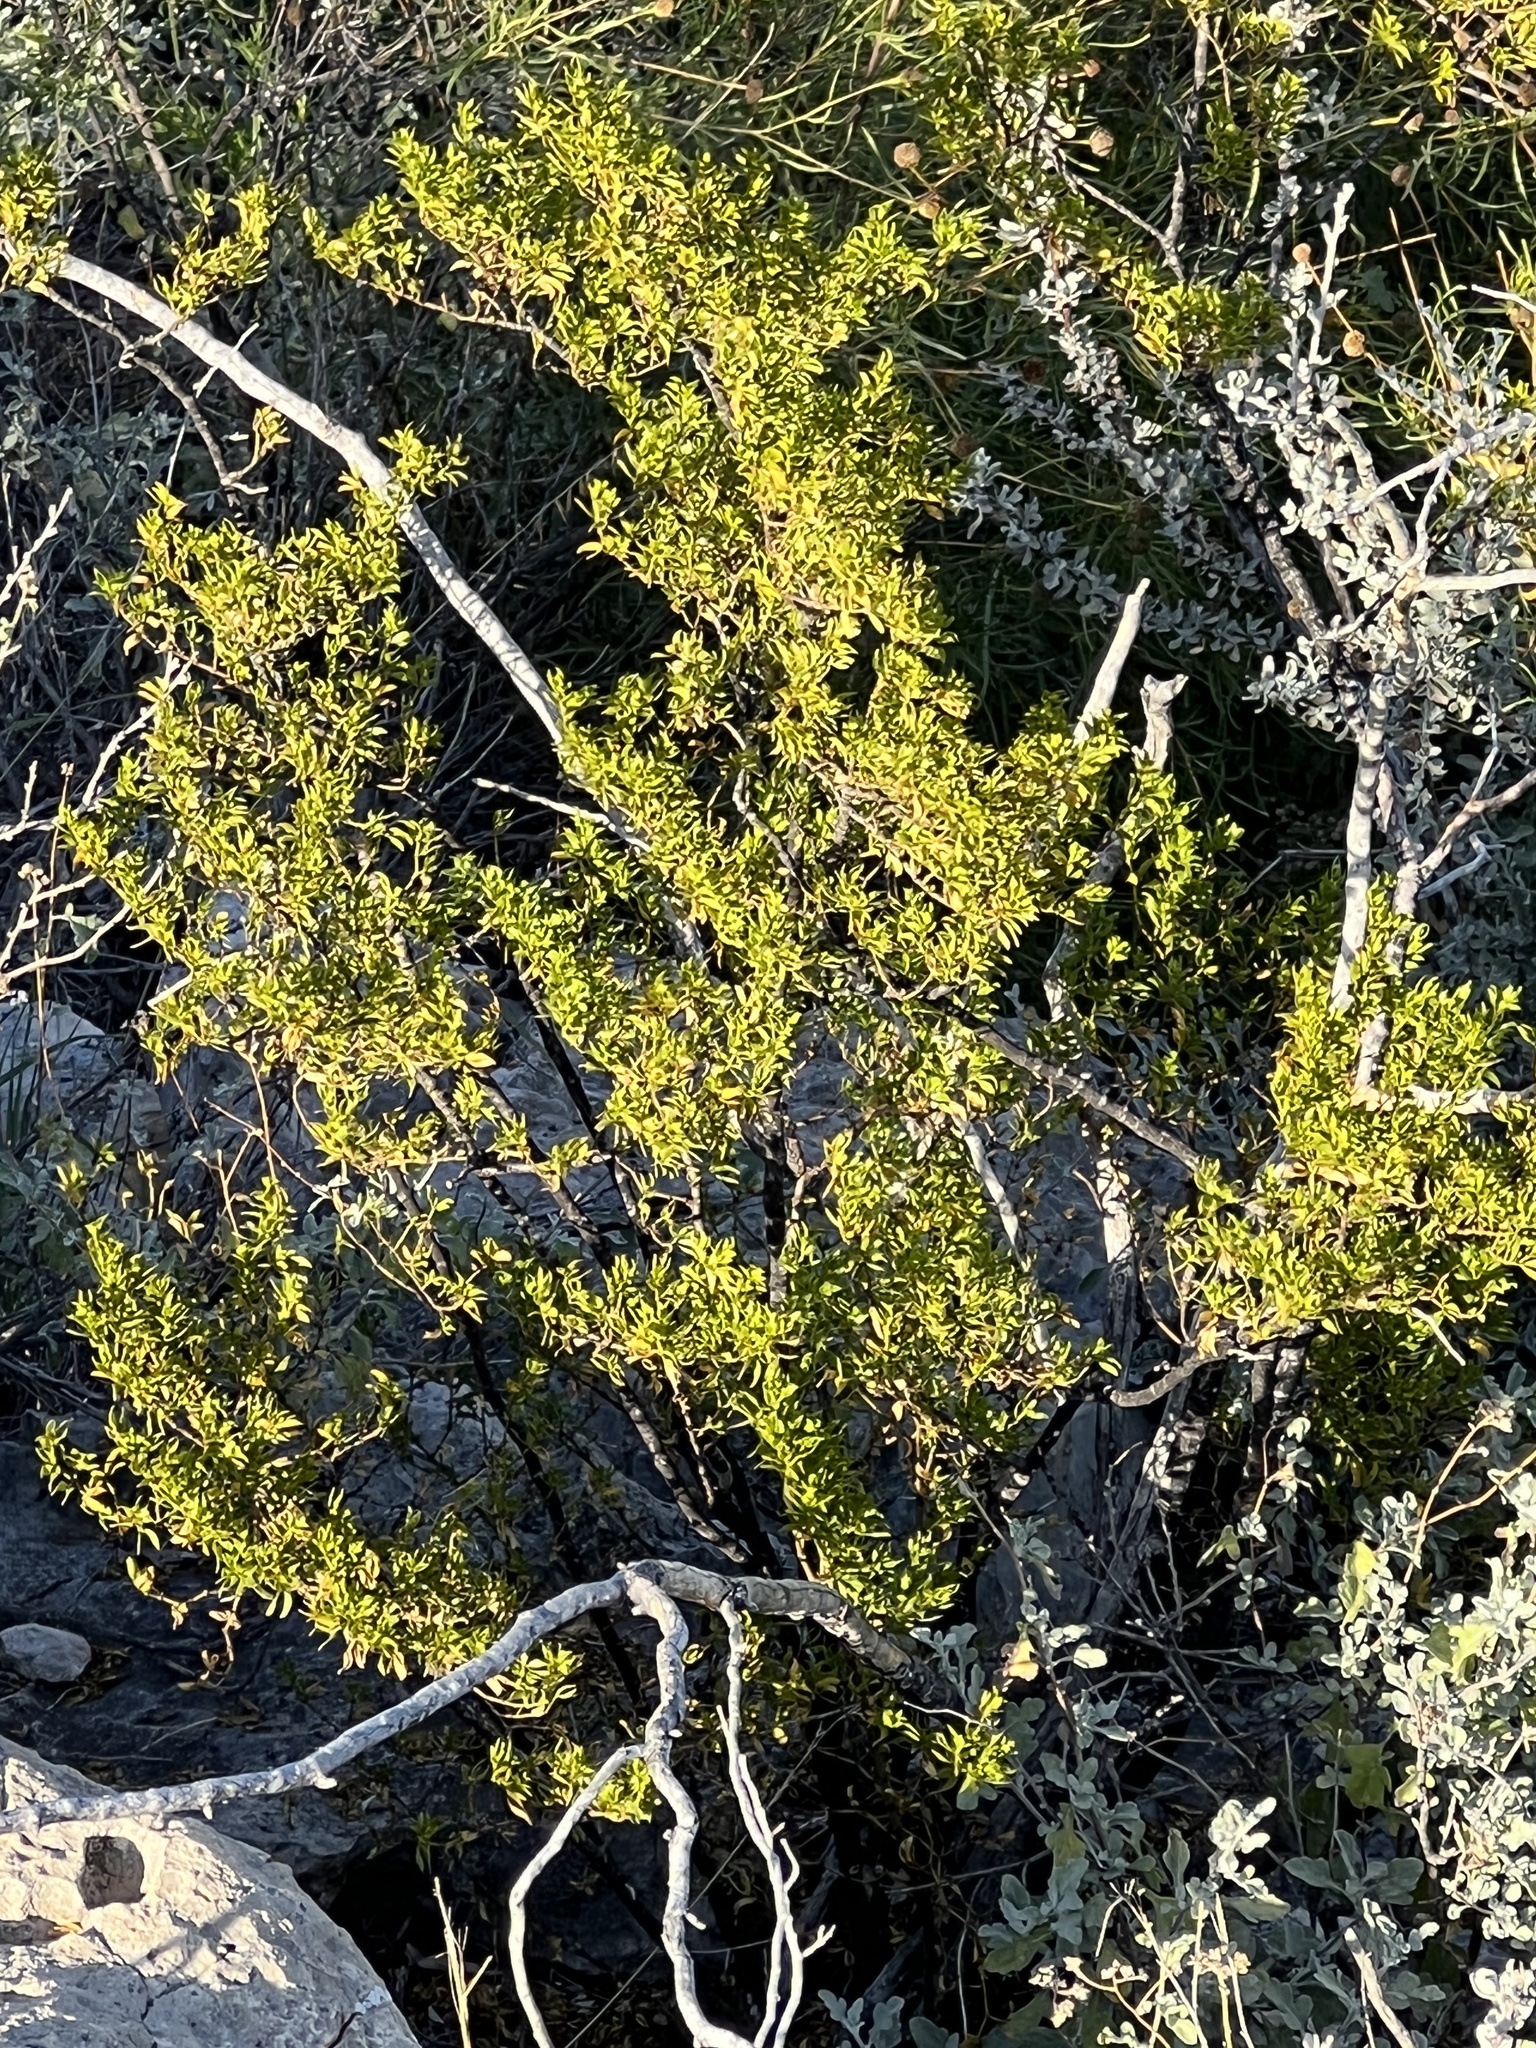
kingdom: Plantae
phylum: Tracheophyta
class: Magnoliopsida
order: Zygophyllales
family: Zygophyllaceae
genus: Larrea
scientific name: Larrea tridentata
